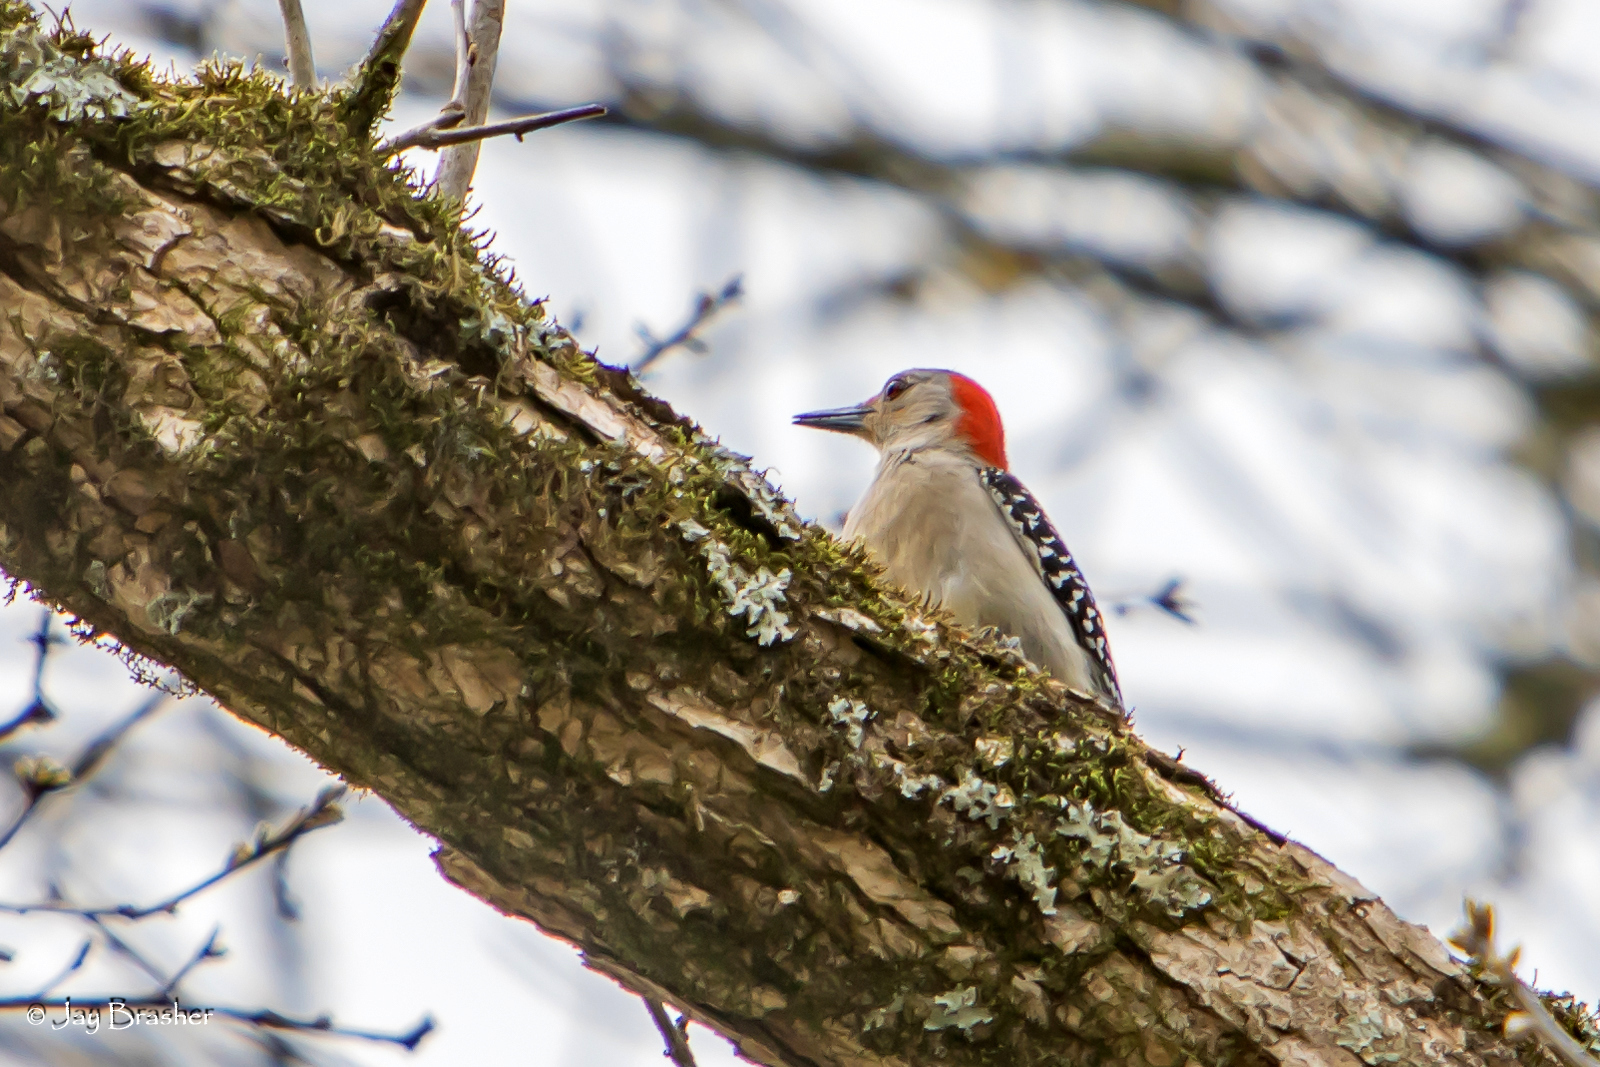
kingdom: Animalia
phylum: Chordata
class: Aves
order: Piciformes
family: Picidae
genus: Melanerpes
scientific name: Melanerpes carolinus
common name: Red-bellied woodpecker
